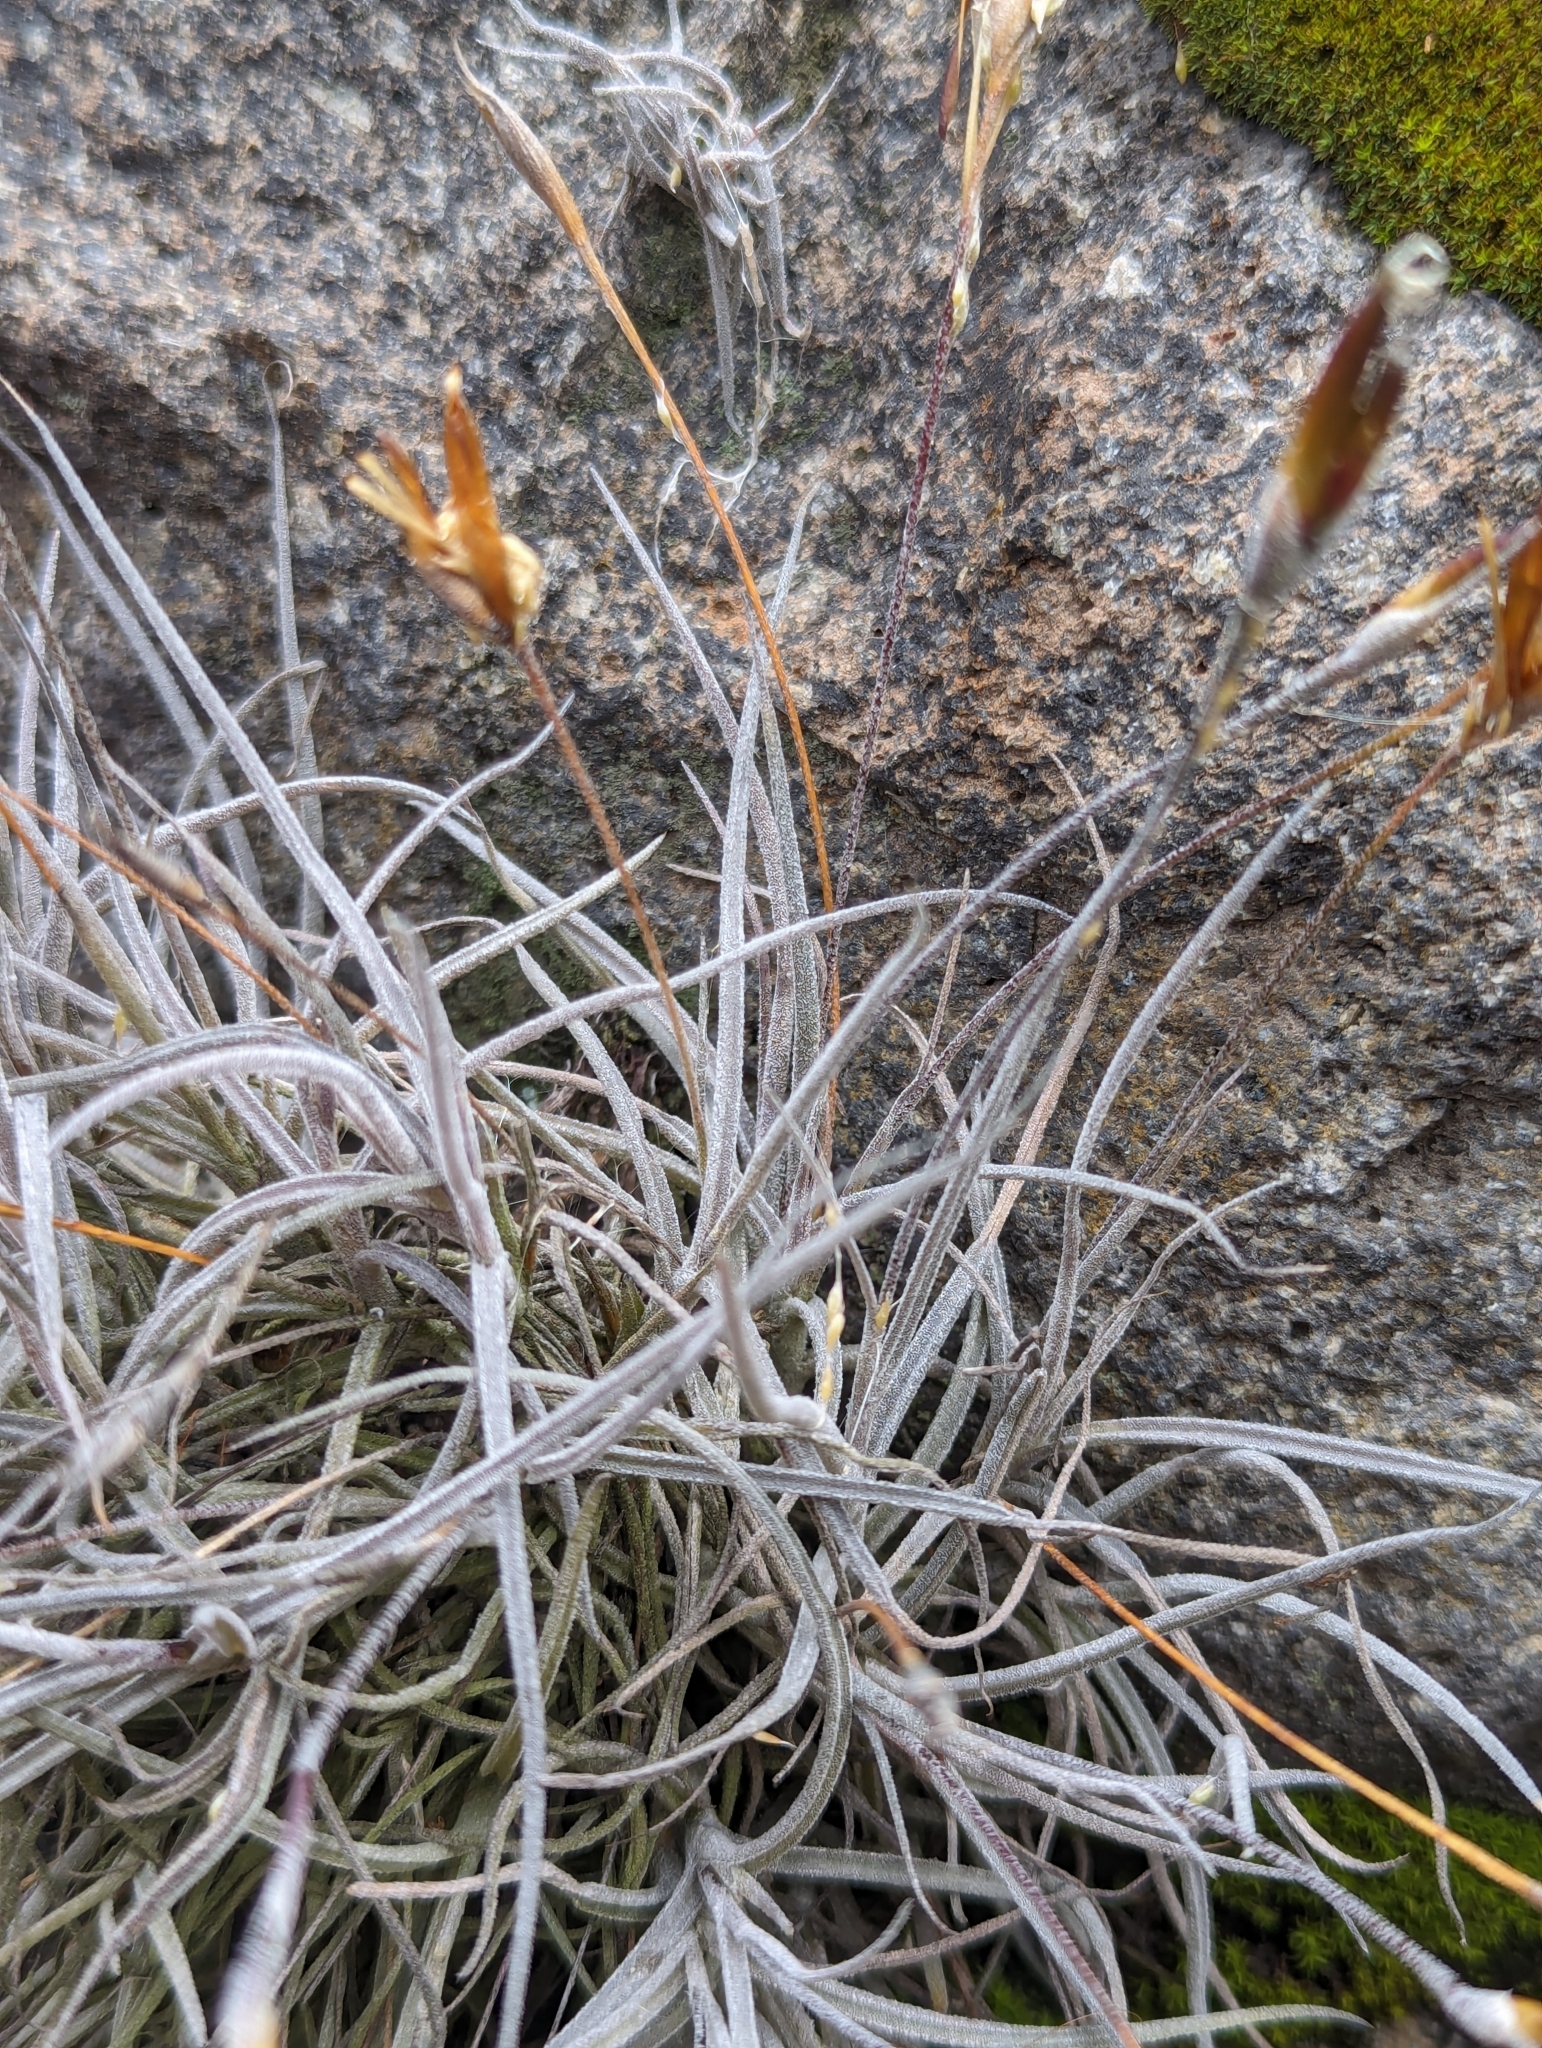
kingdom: Plantae
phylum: Tracheophyta
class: Liliopsida
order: Poales
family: Bromeliaceae
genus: Tillandsia
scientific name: Tillandsia recurvata
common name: Small ballmoss
